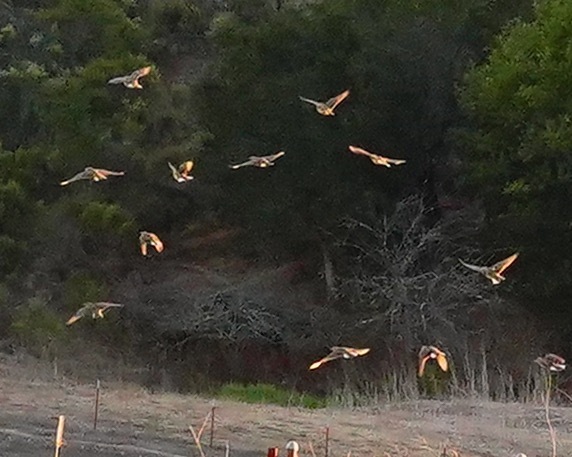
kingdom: Animalia
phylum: Chordata
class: Aves
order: Passeriformes
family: Icteridae
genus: Sturnella
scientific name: Sturnella neglecta
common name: Western meadowlark
